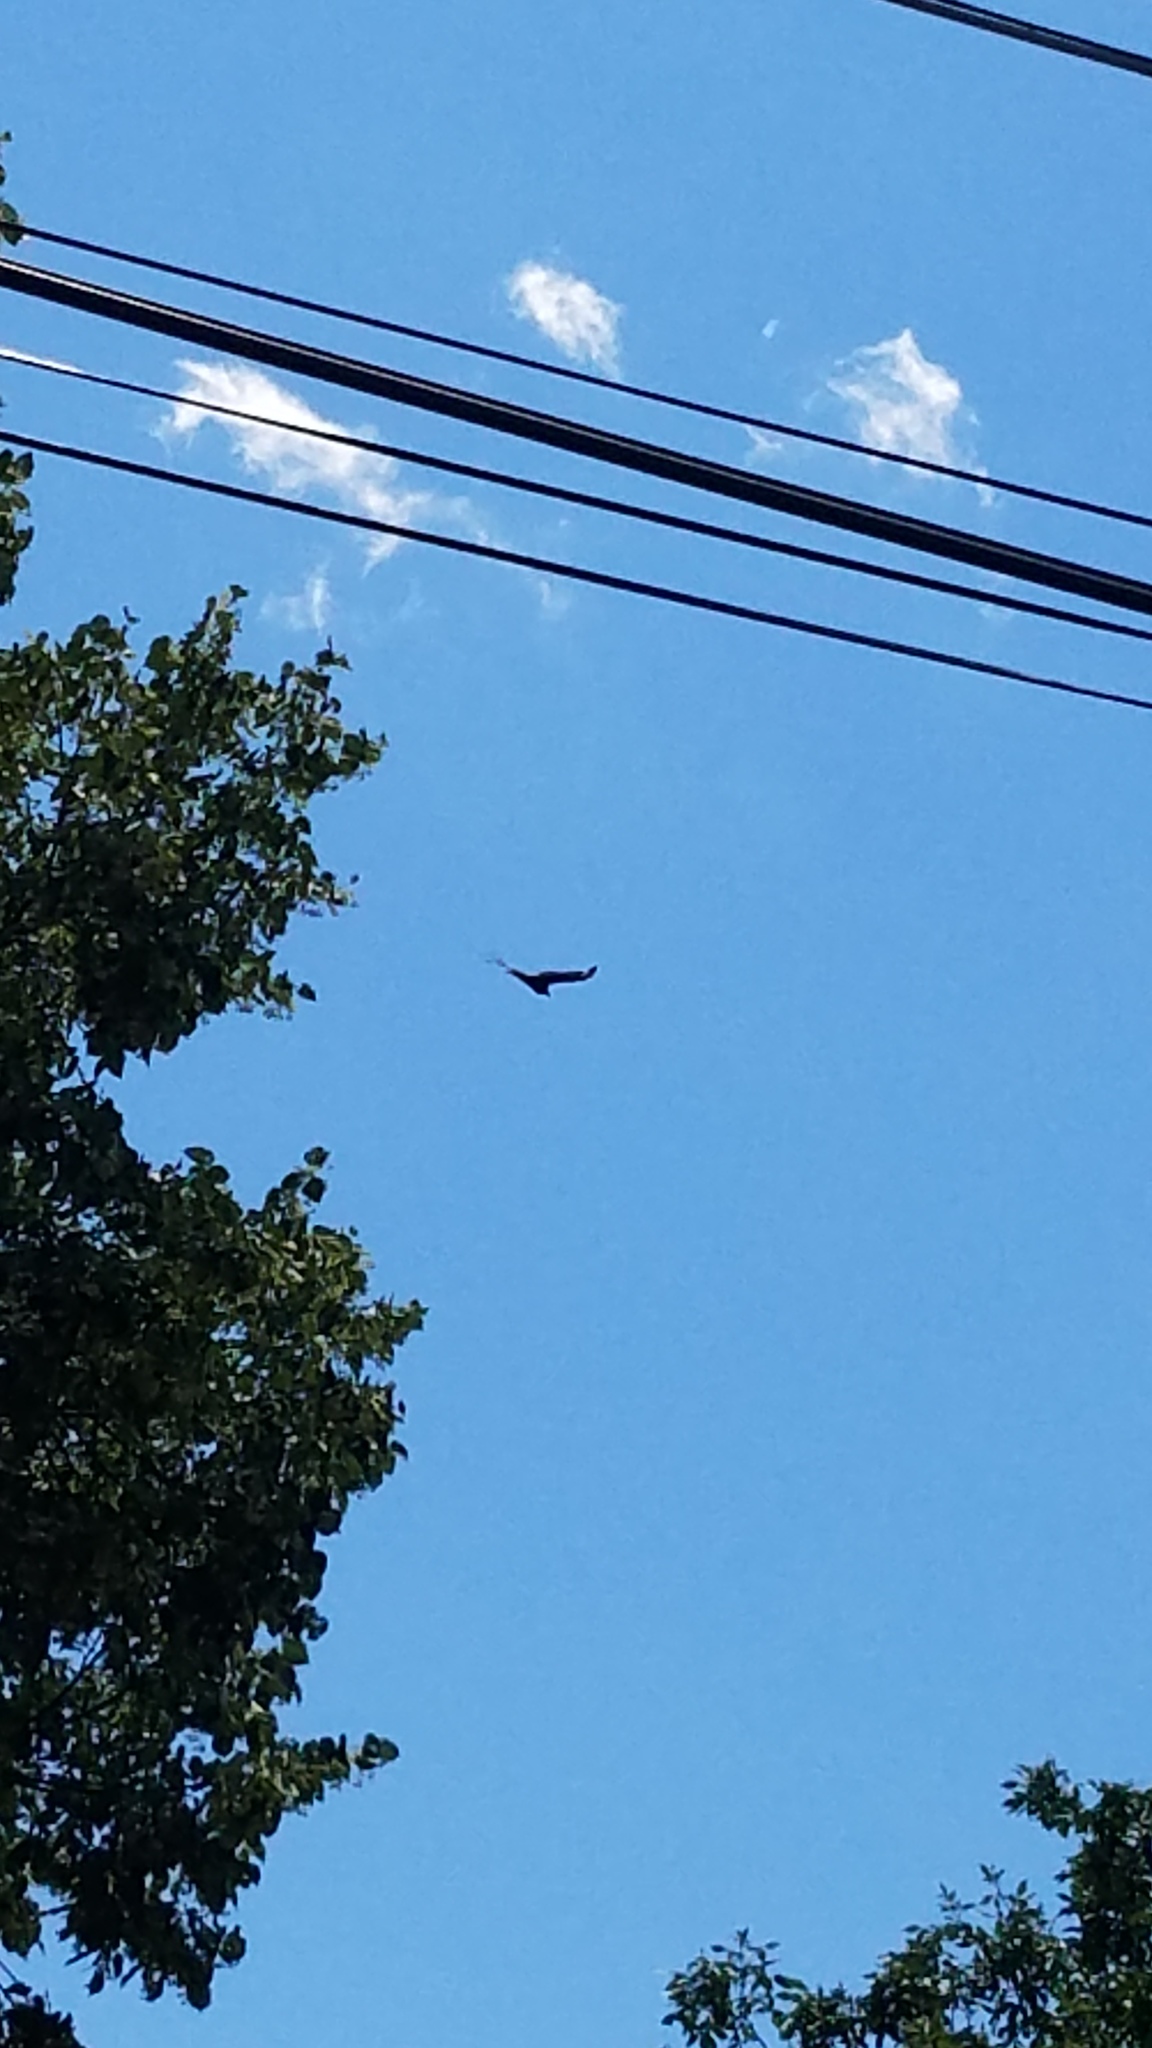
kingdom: Animalia
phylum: Chordata
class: Aves
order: Accipitriformes
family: Cathartidae
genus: Cathartes
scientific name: Cathartes aura
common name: Turkey vulture
